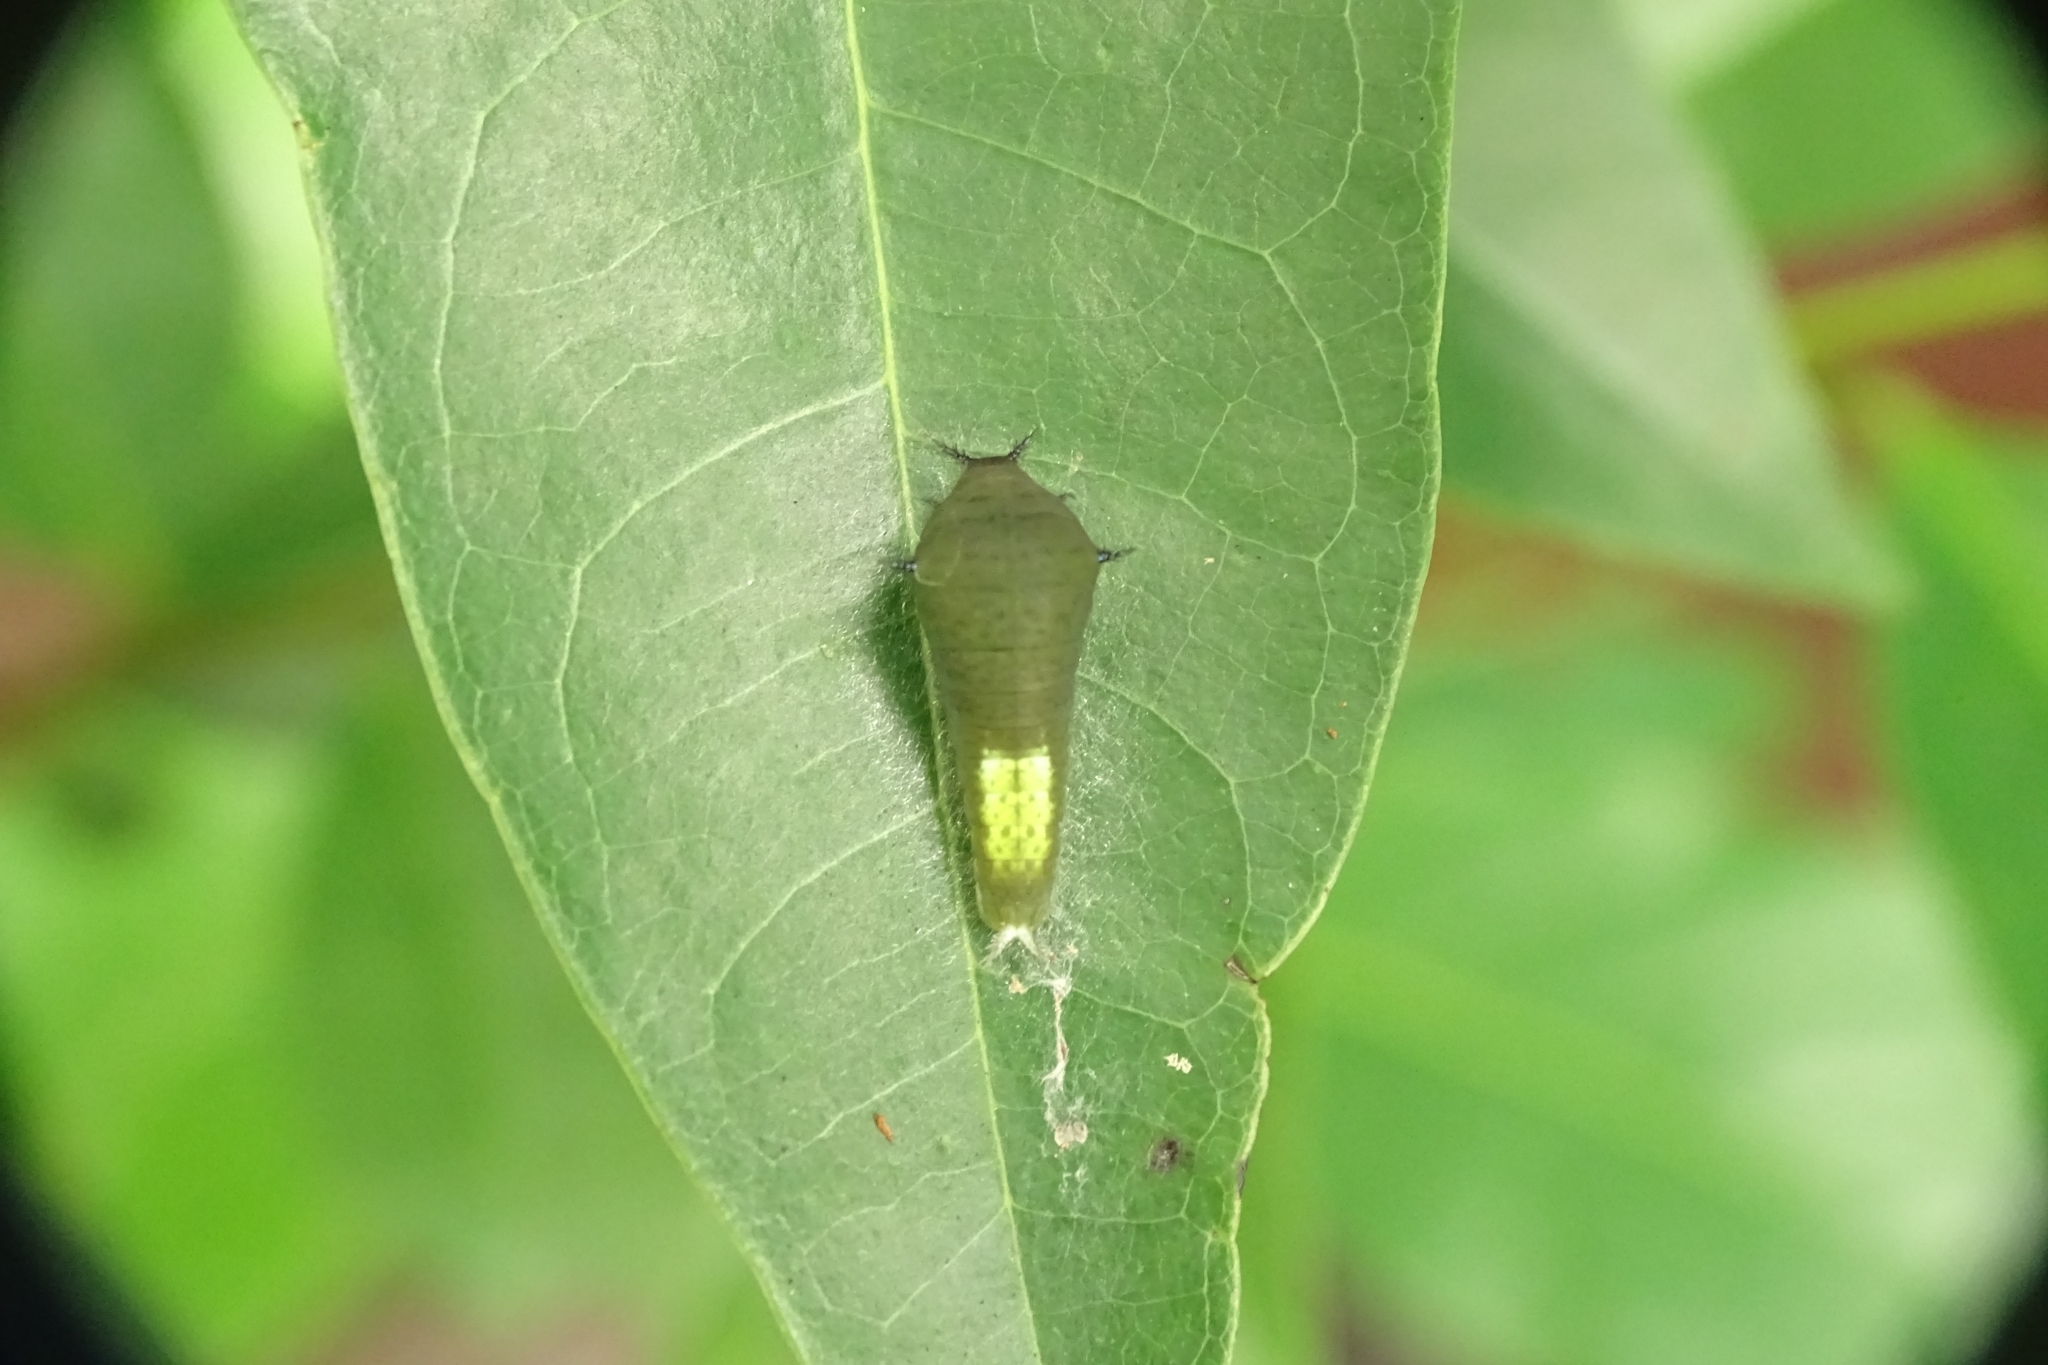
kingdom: Animalia
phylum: Arthropoda
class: Insecta
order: Lepidoptera
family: Papilionidae
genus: Graphium
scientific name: Graphium agamemnon
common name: Tailed jay
